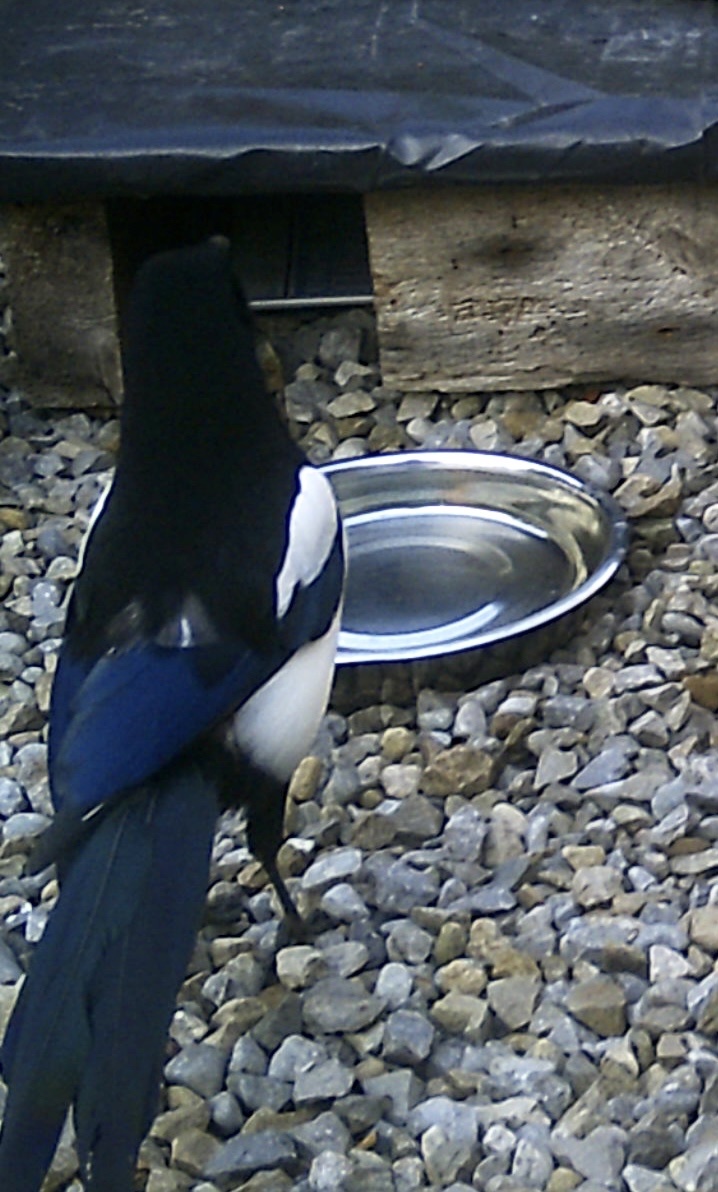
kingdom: Animalia
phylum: Chordata
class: Aves
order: Passeriformes
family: Corvidae
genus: Pica
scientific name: Pica pica
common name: Eurasian magpie
